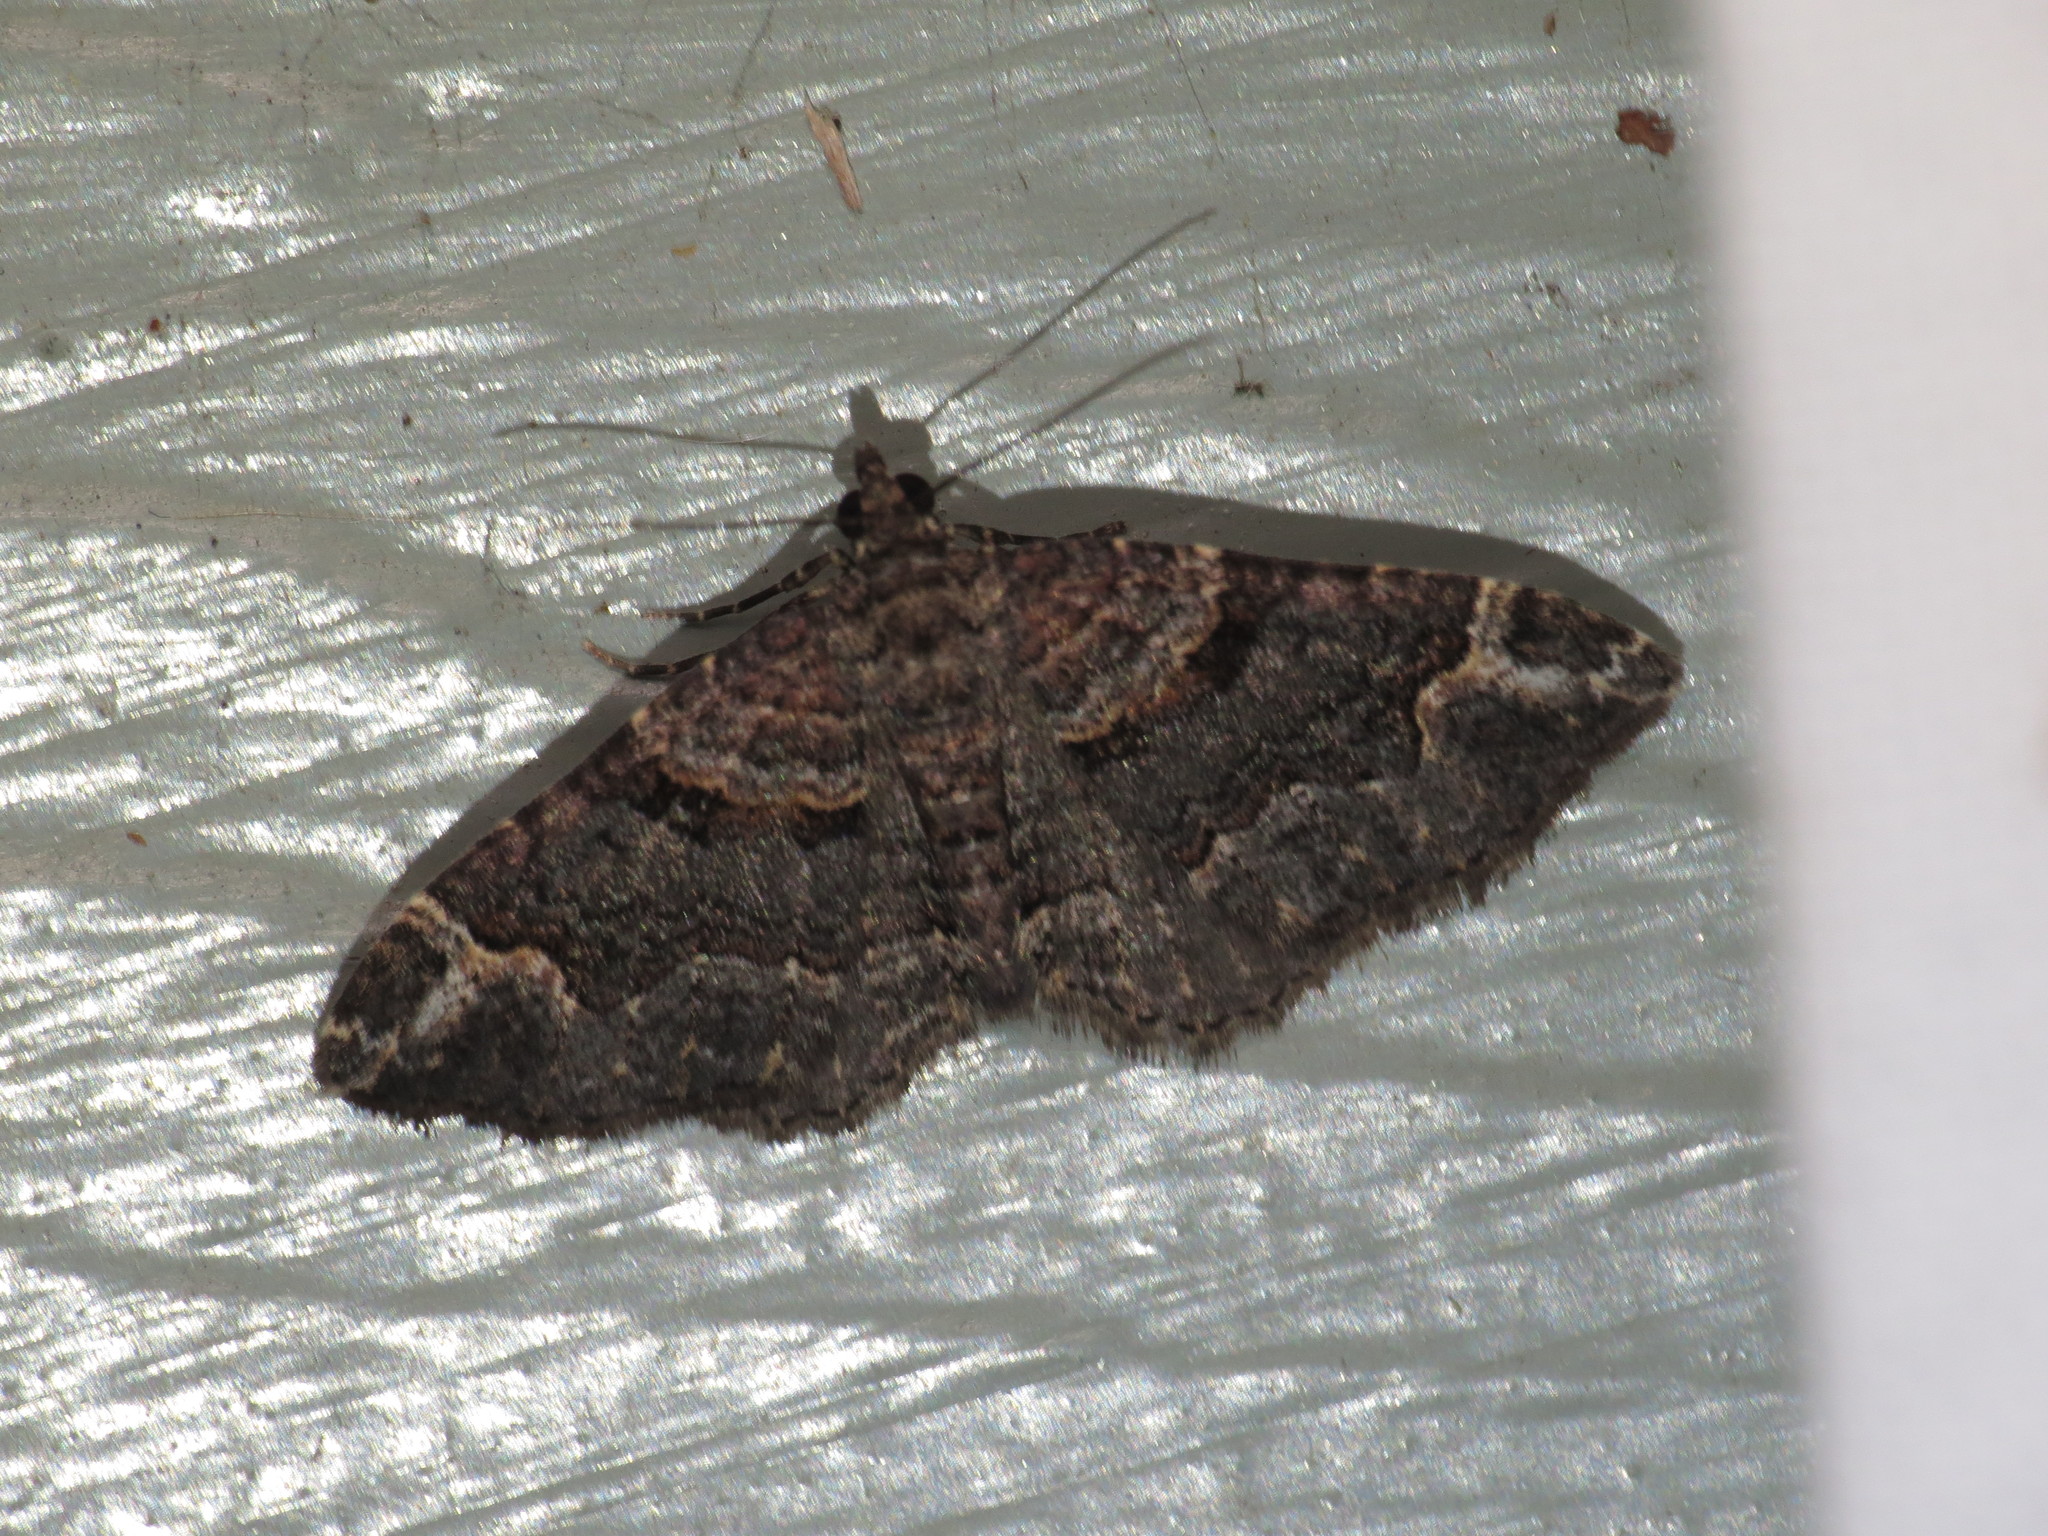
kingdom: Animalia
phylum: Arthropoda
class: Insecta
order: Lepidoptera
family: Geometridae
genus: Epyaxa
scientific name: Epyaxa sodaliata
